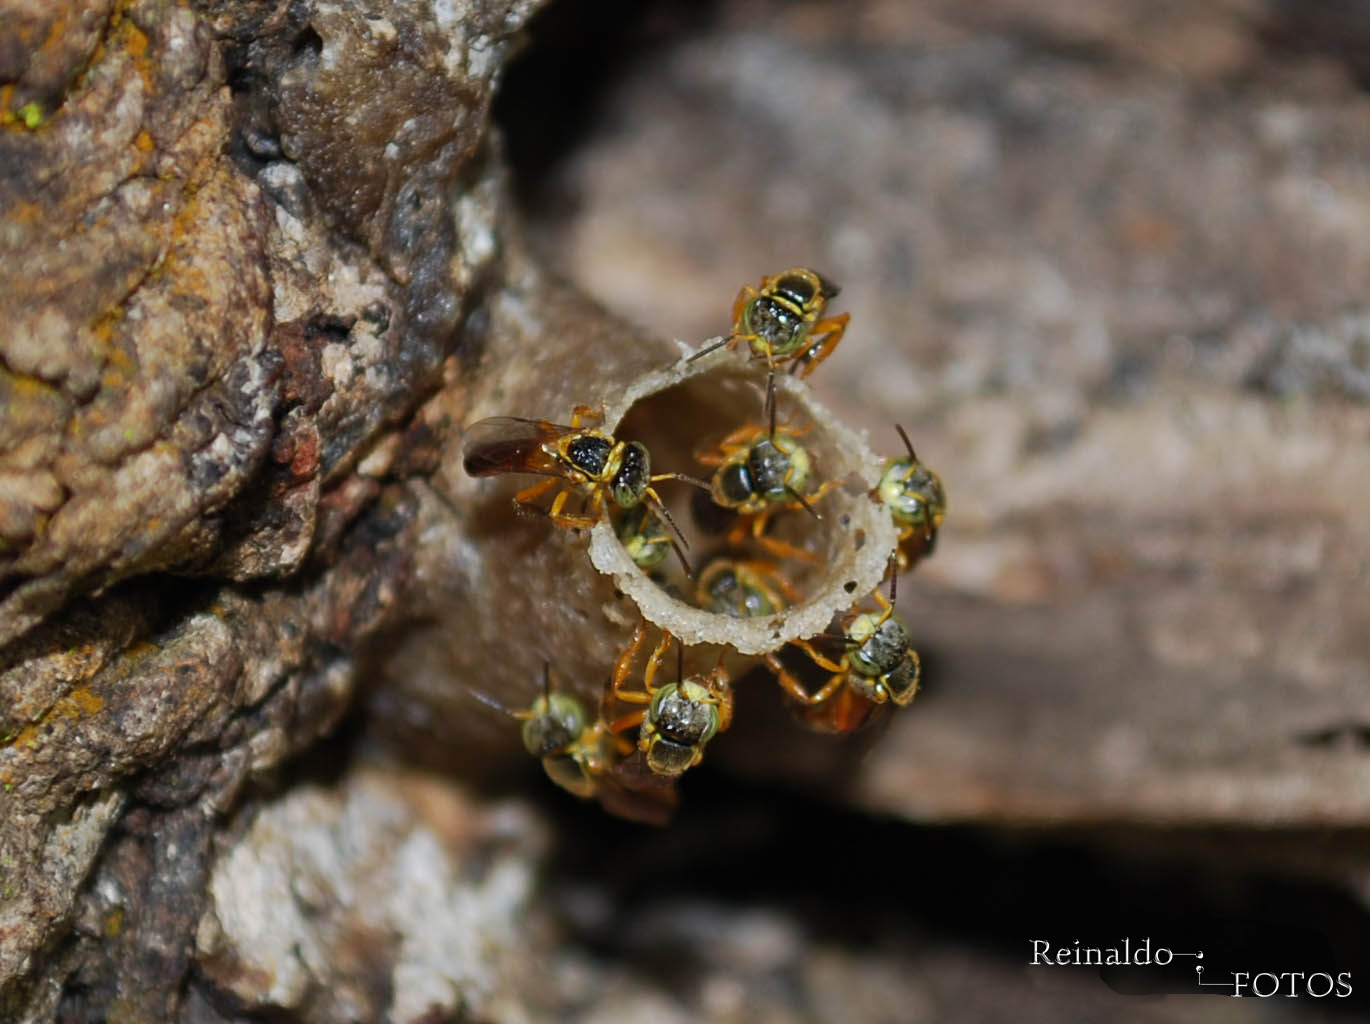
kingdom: Animalia
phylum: Arthropoda
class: Insecta
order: Hymenoptera
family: Apidae
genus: Tetragonisca
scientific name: Tetragonisca angustula
